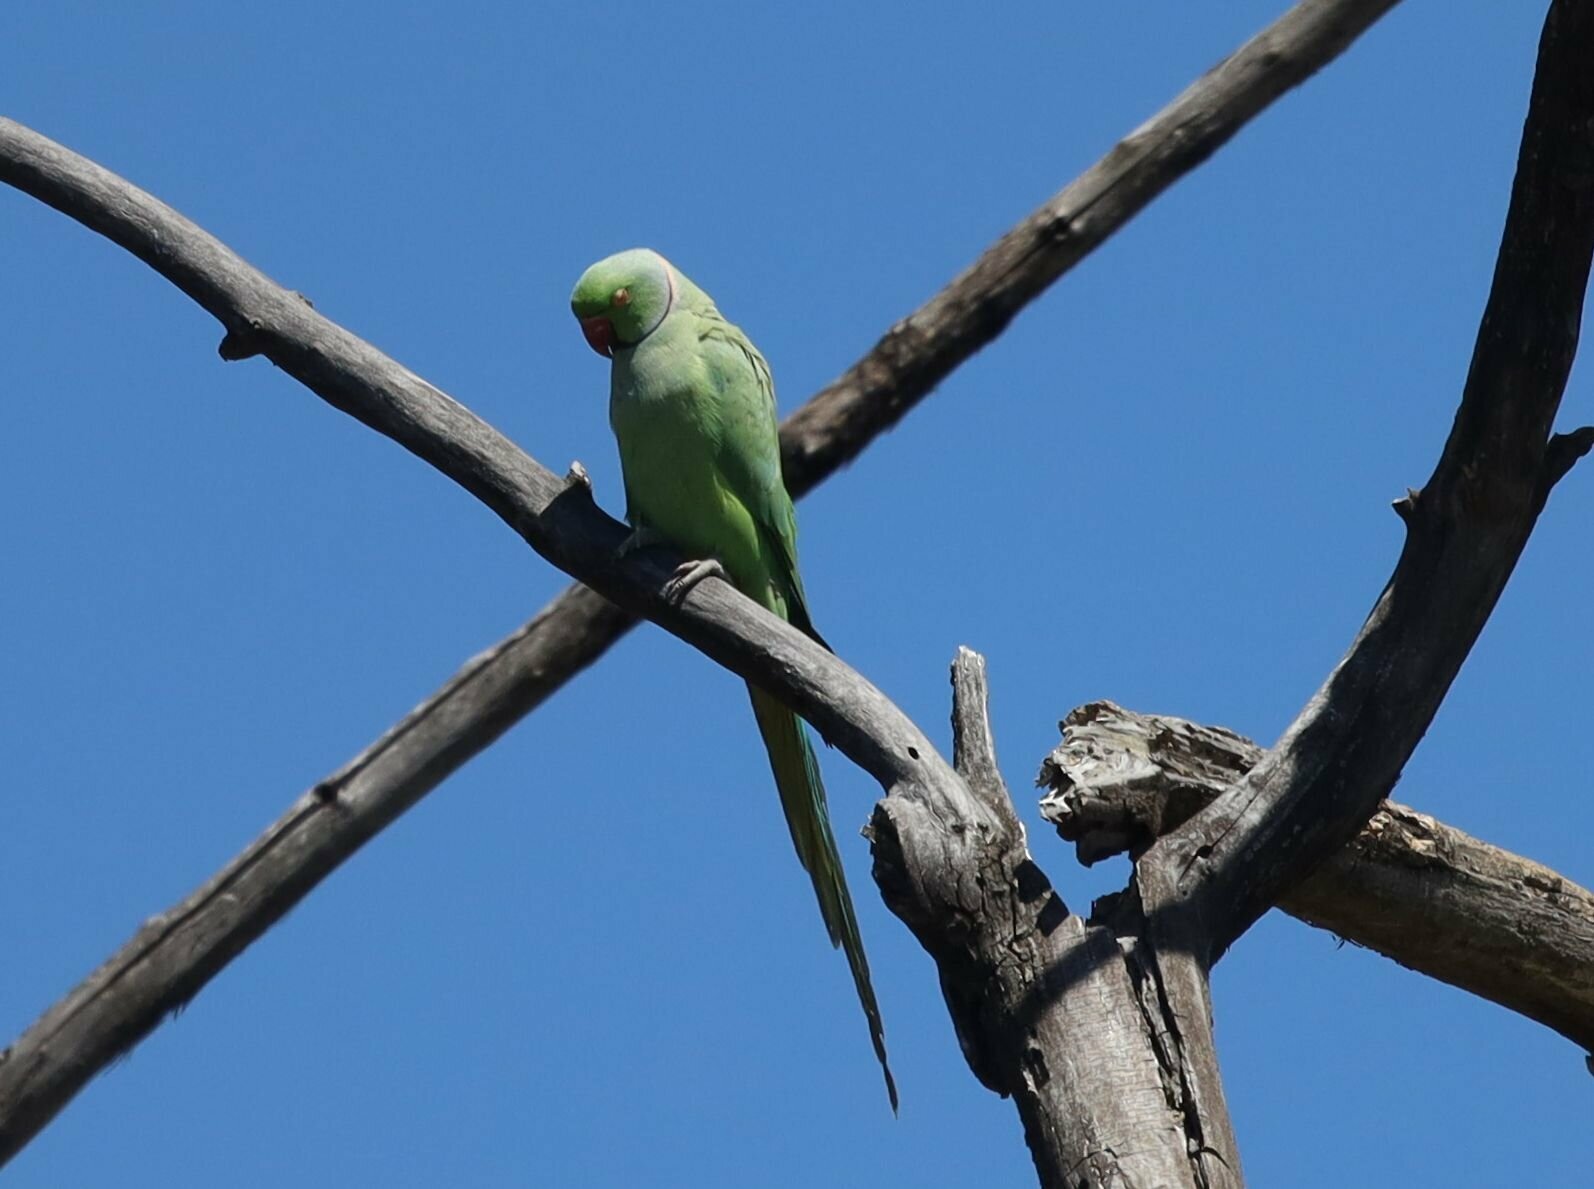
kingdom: Animalia
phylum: Chordata
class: Aves
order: Psittaciformes
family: Psittacidae
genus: Psittacula
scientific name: Psittacula krameri
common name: Rose-ringed parakeet
